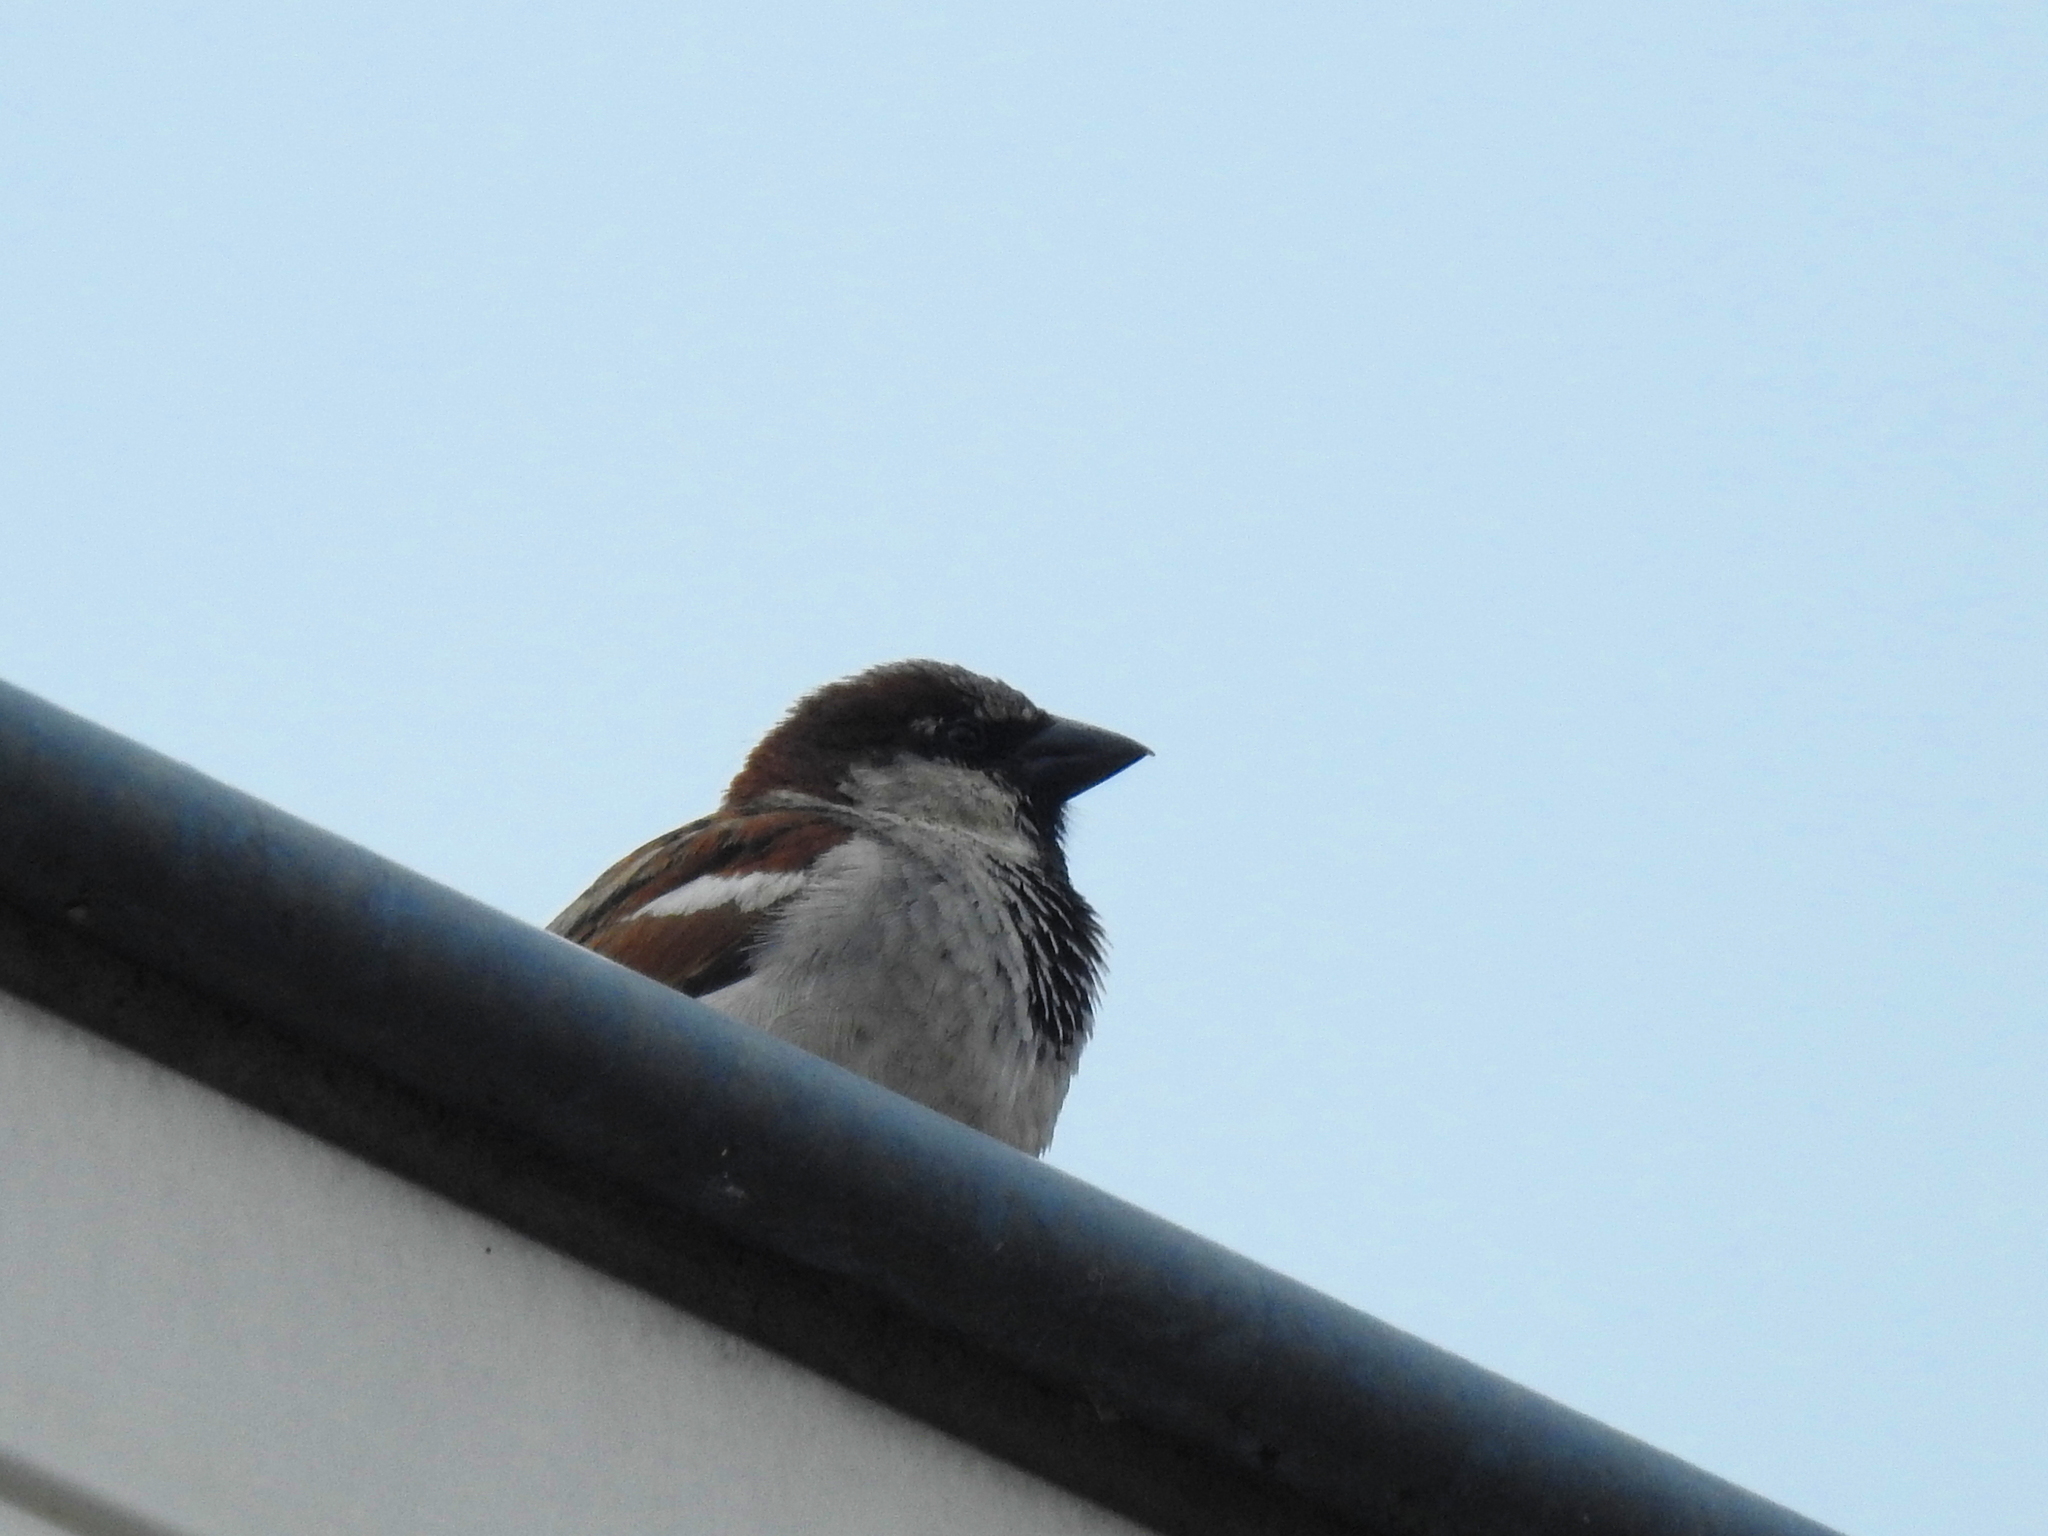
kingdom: Animalia
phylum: Chordata
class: Aves
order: Passeriformes
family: Passeridae
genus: Passer
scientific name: Passer domesticus
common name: House sparrow
